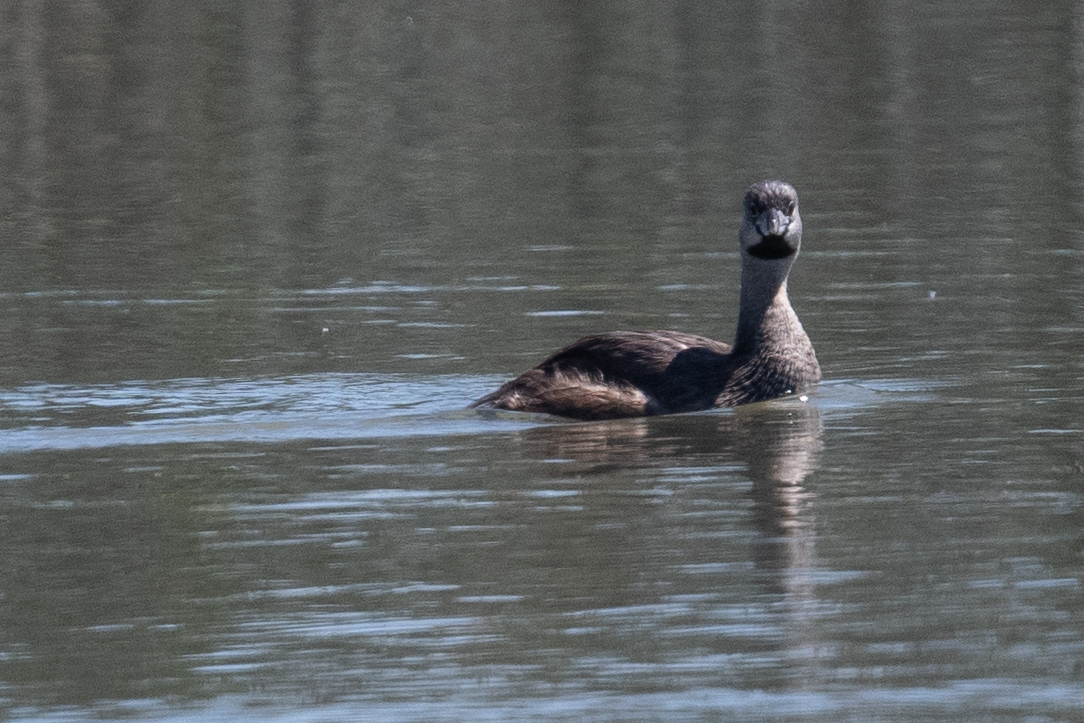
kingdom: Animalia
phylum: Chordata
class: Aves
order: Podicipediformes
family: Podicipedidae
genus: Podilymbus
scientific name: Podilymbus podiceps
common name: Pied-billed grebe
